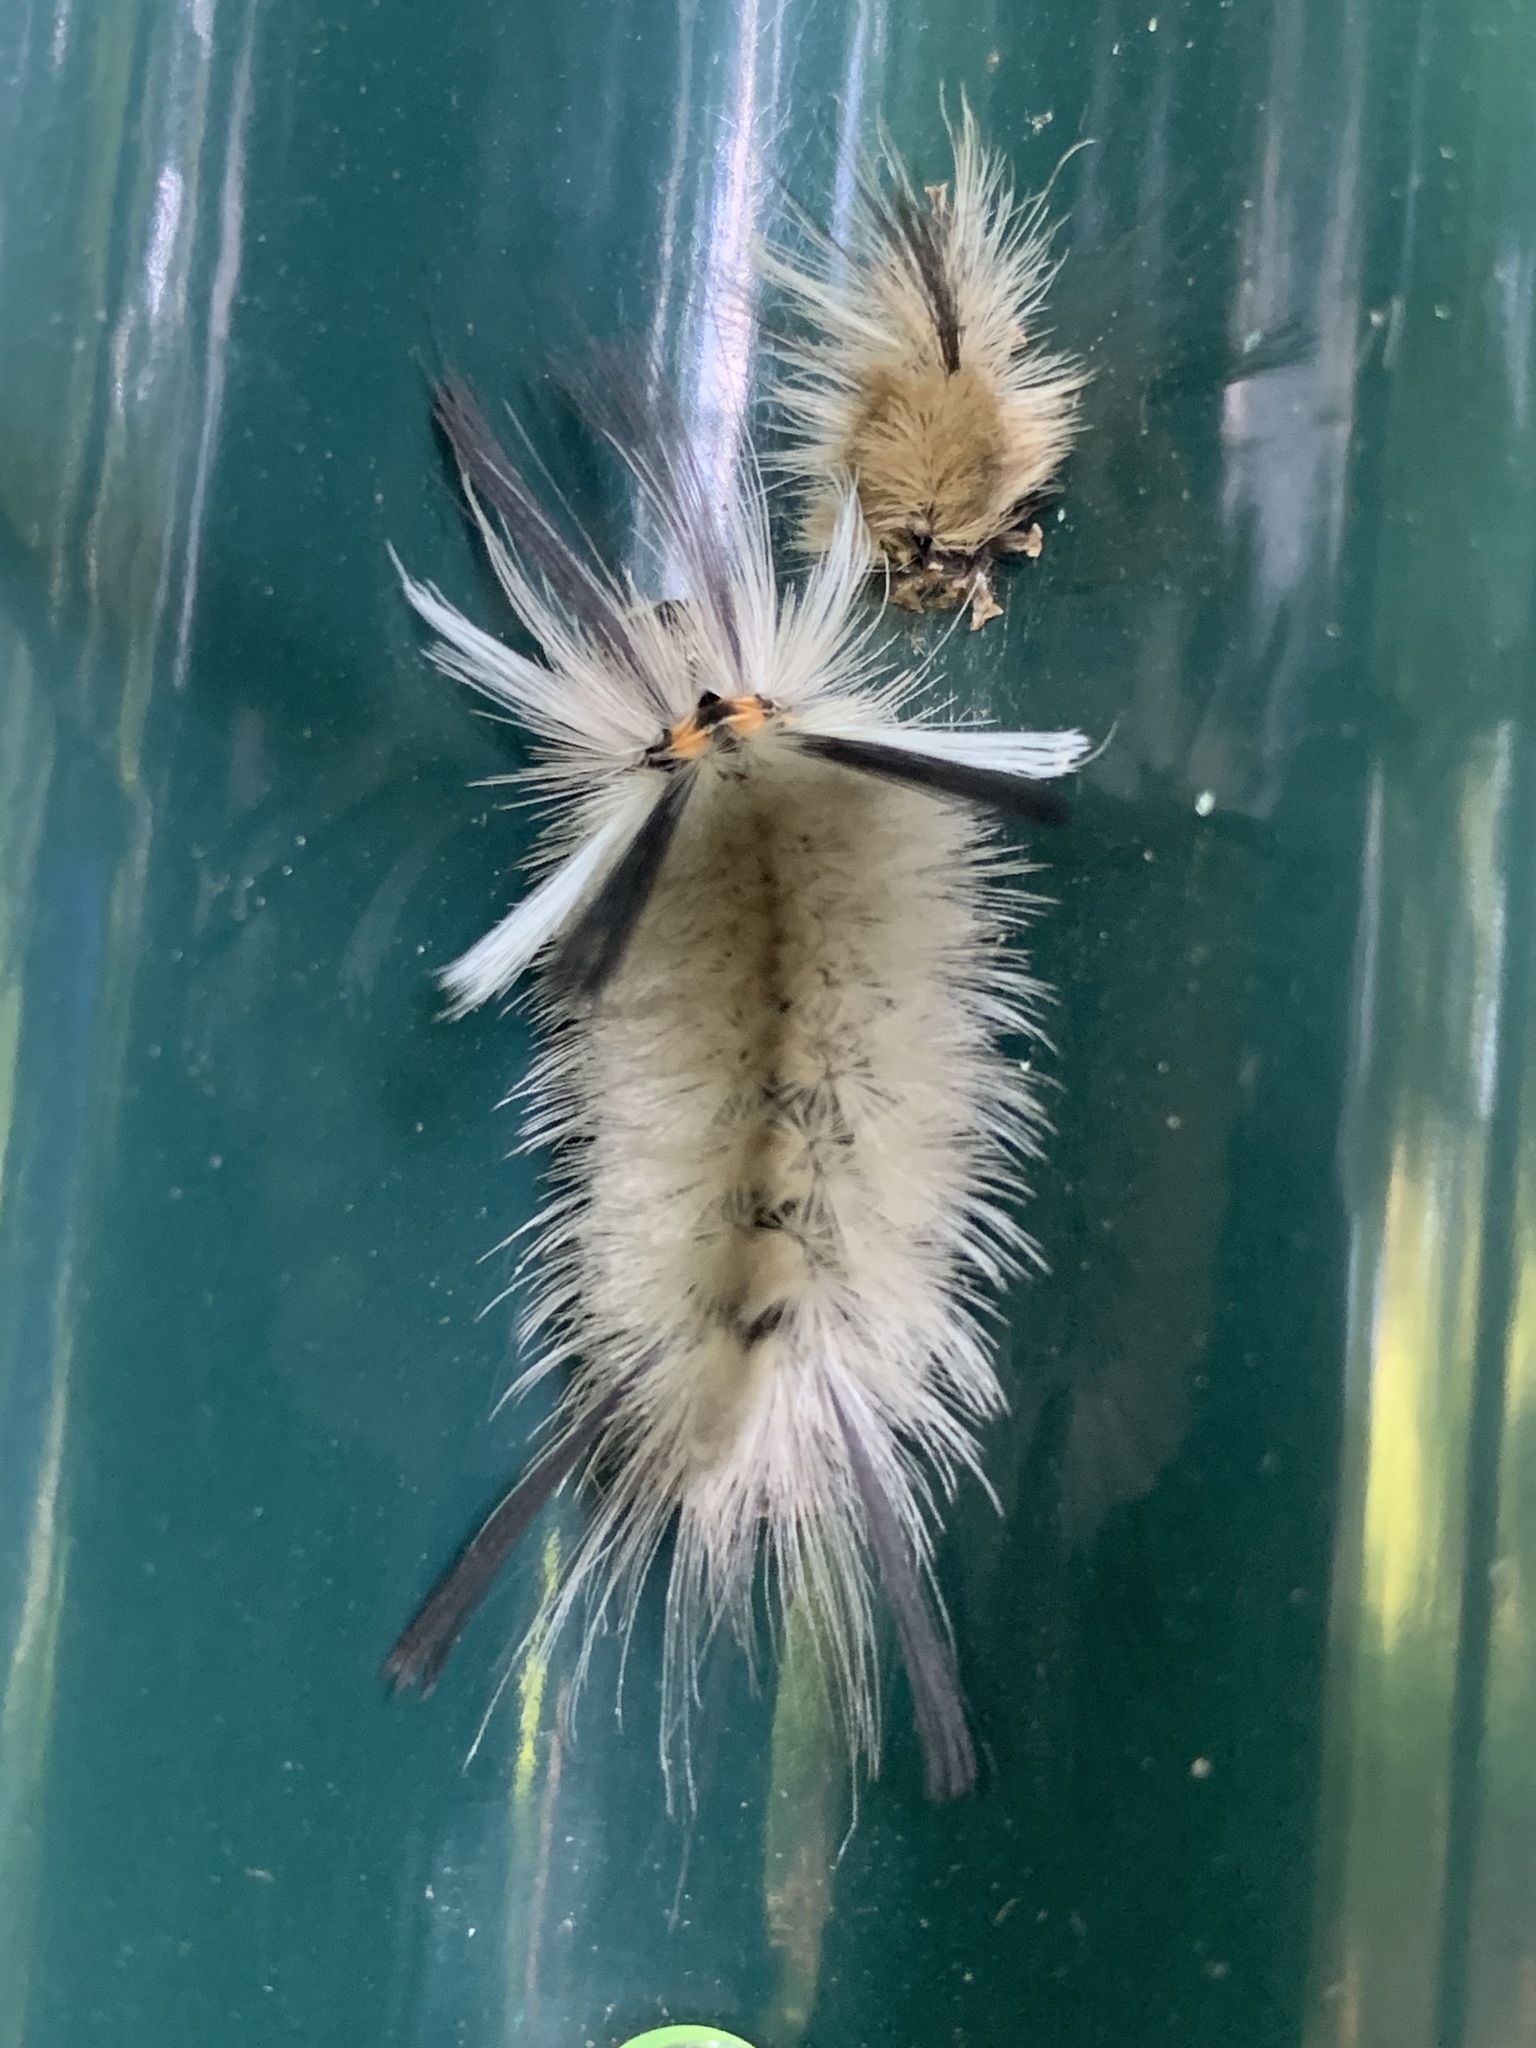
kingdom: Animalia
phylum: Arthropoda
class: Insecta
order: Lepidoptera
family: Erebidae
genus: Halysidota
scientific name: Halysidota tessellaris
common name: Banded tussock moth
